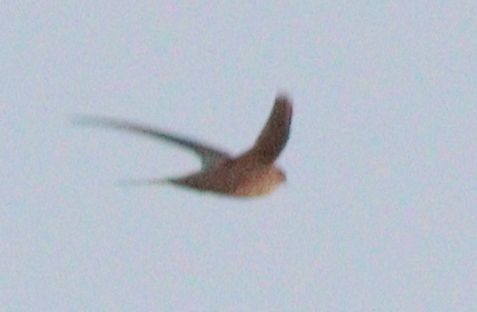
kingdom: Animalia
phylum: Chordata
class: Aves
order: Apodiformes
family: Apodidae
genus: Tachornis
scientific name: Tachornis squamata
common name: Neotropical palm swift
